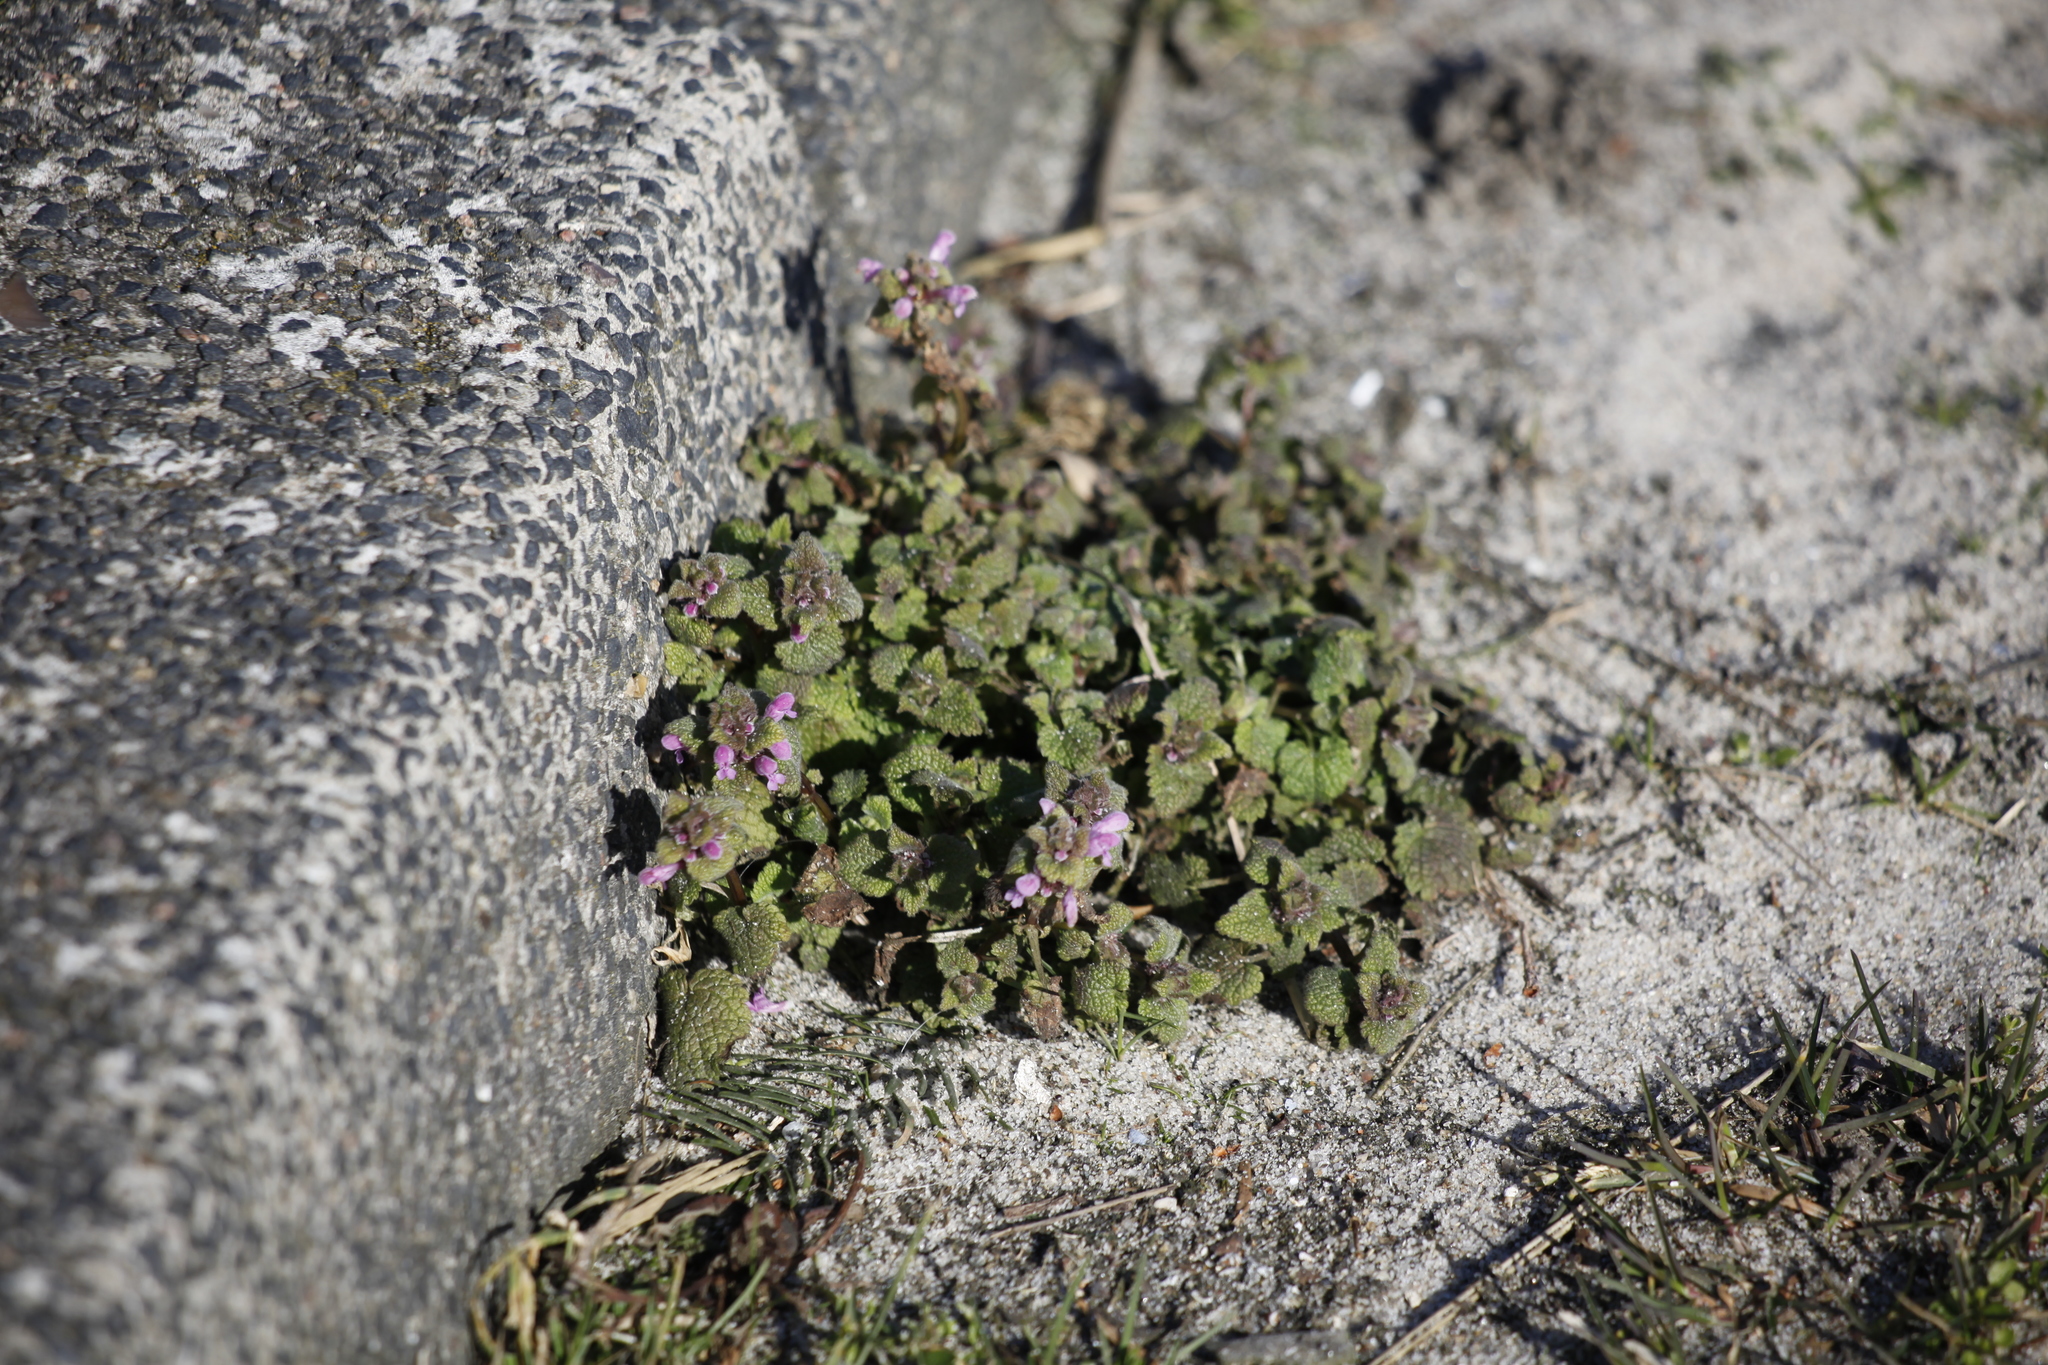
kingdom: Plantae
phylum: Tracheophyta
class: Magnoliopsida
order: Lamiales
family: Lamiaceae
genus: Lamium
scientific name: Lamium purpureum
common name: Red dead-nettle
